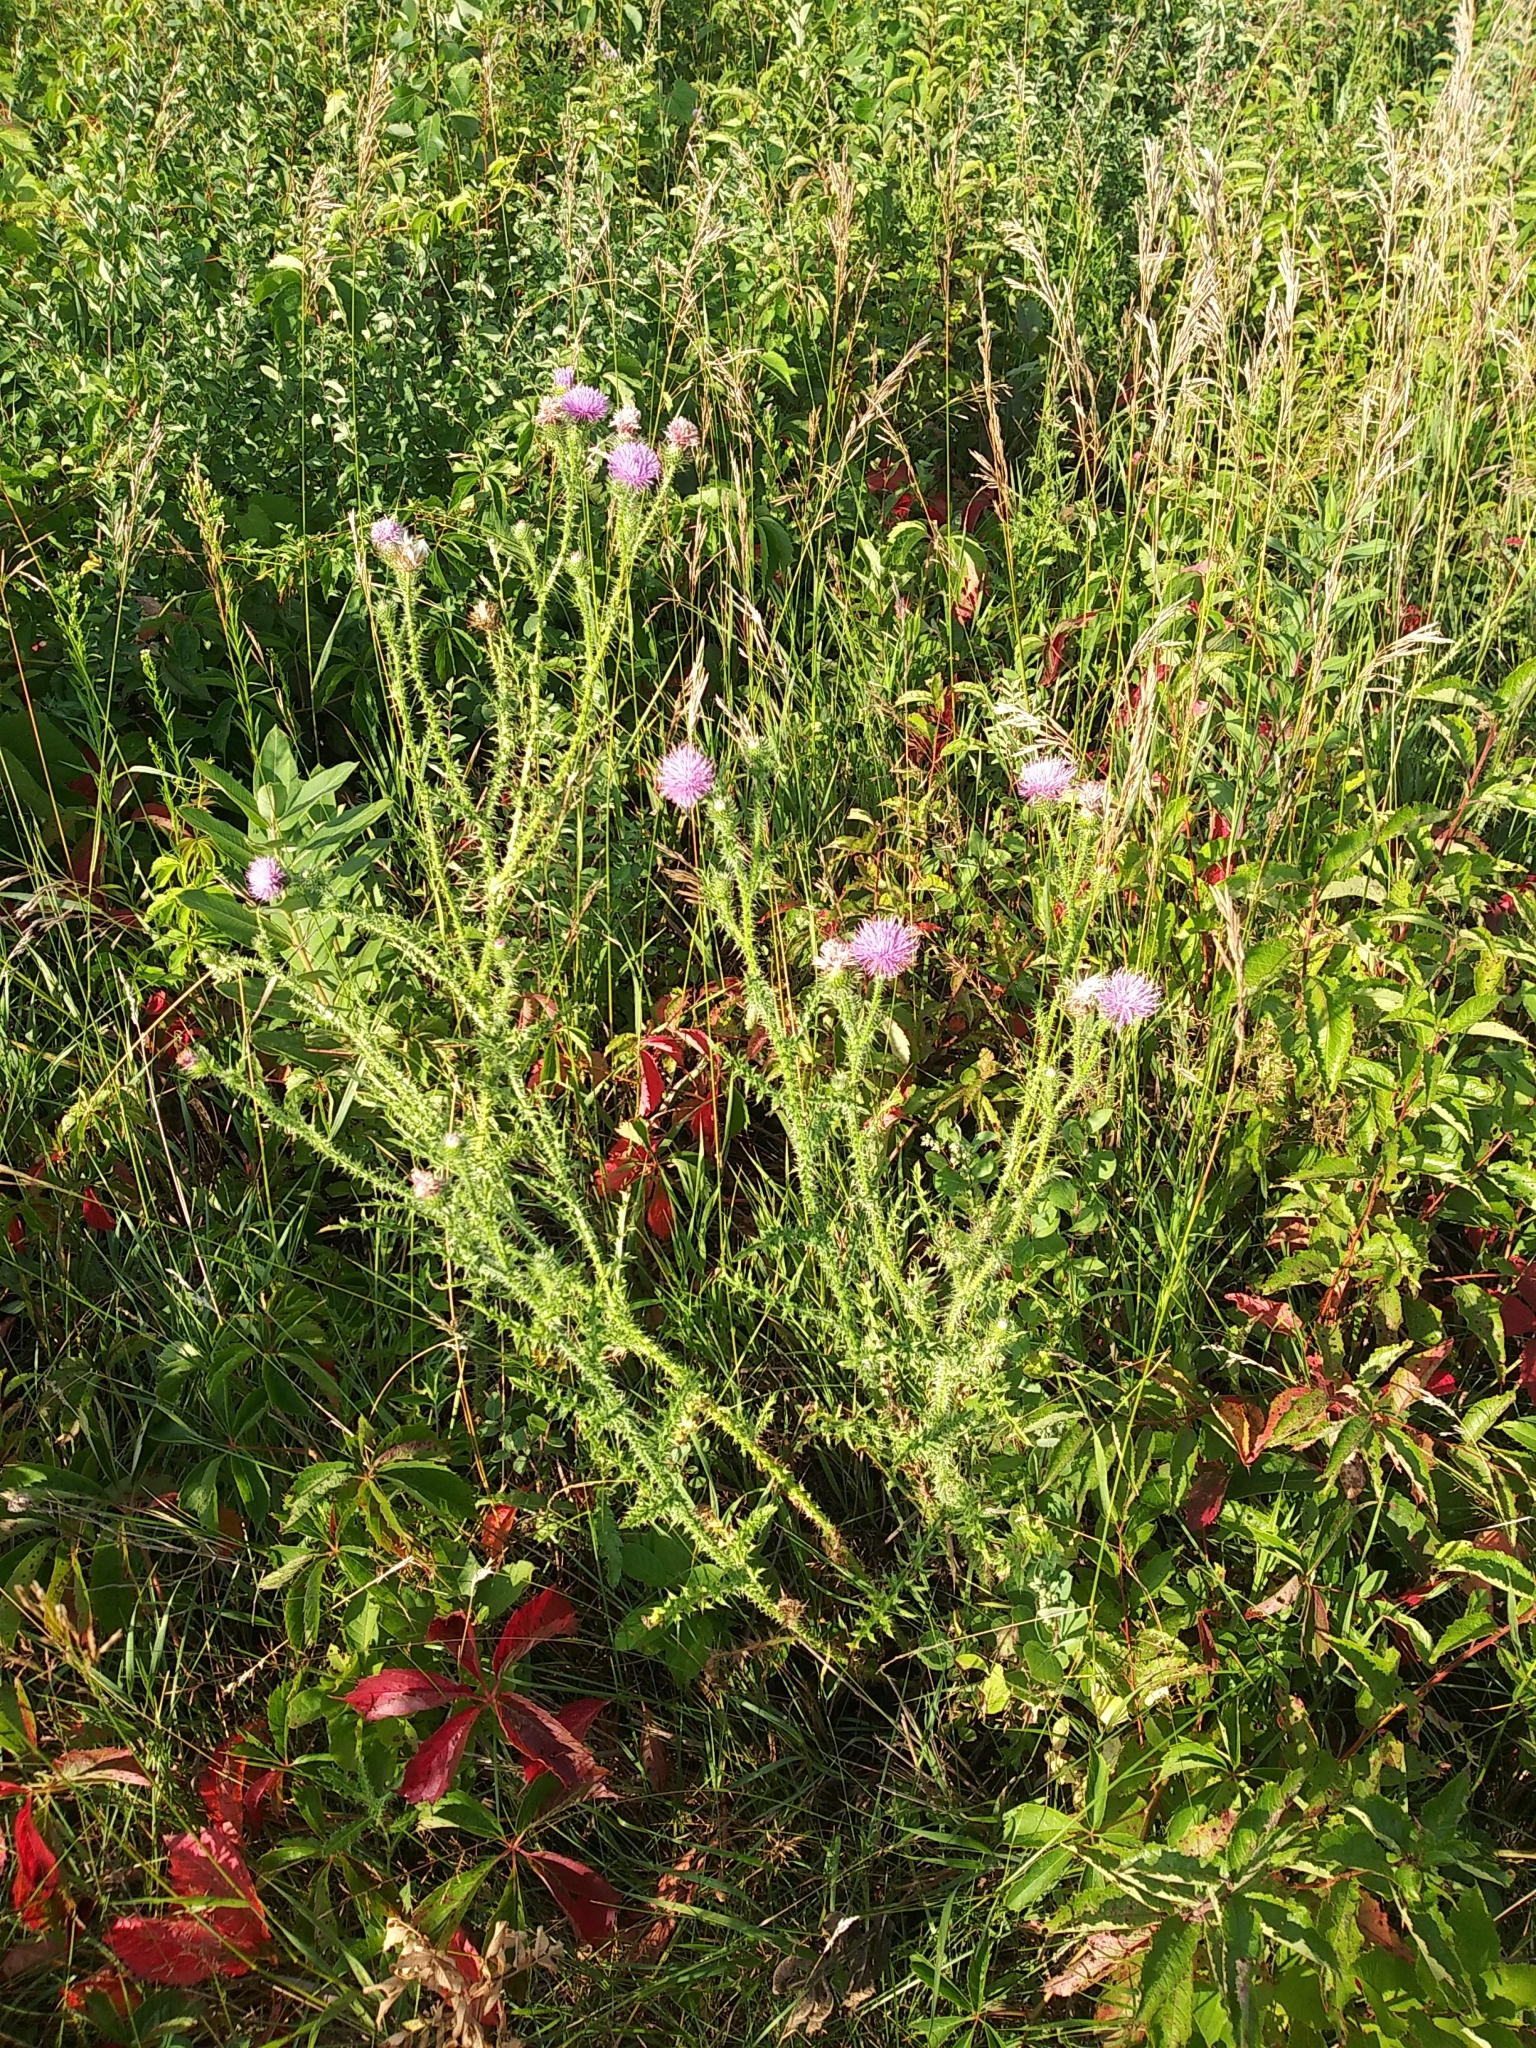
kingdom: Plantae
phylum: Tracheophyta
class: Magnoliopsida
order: Asterales
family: Asteraceae
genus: Carduus
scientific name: Carduus acanthoides
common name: Plumeless thistle
